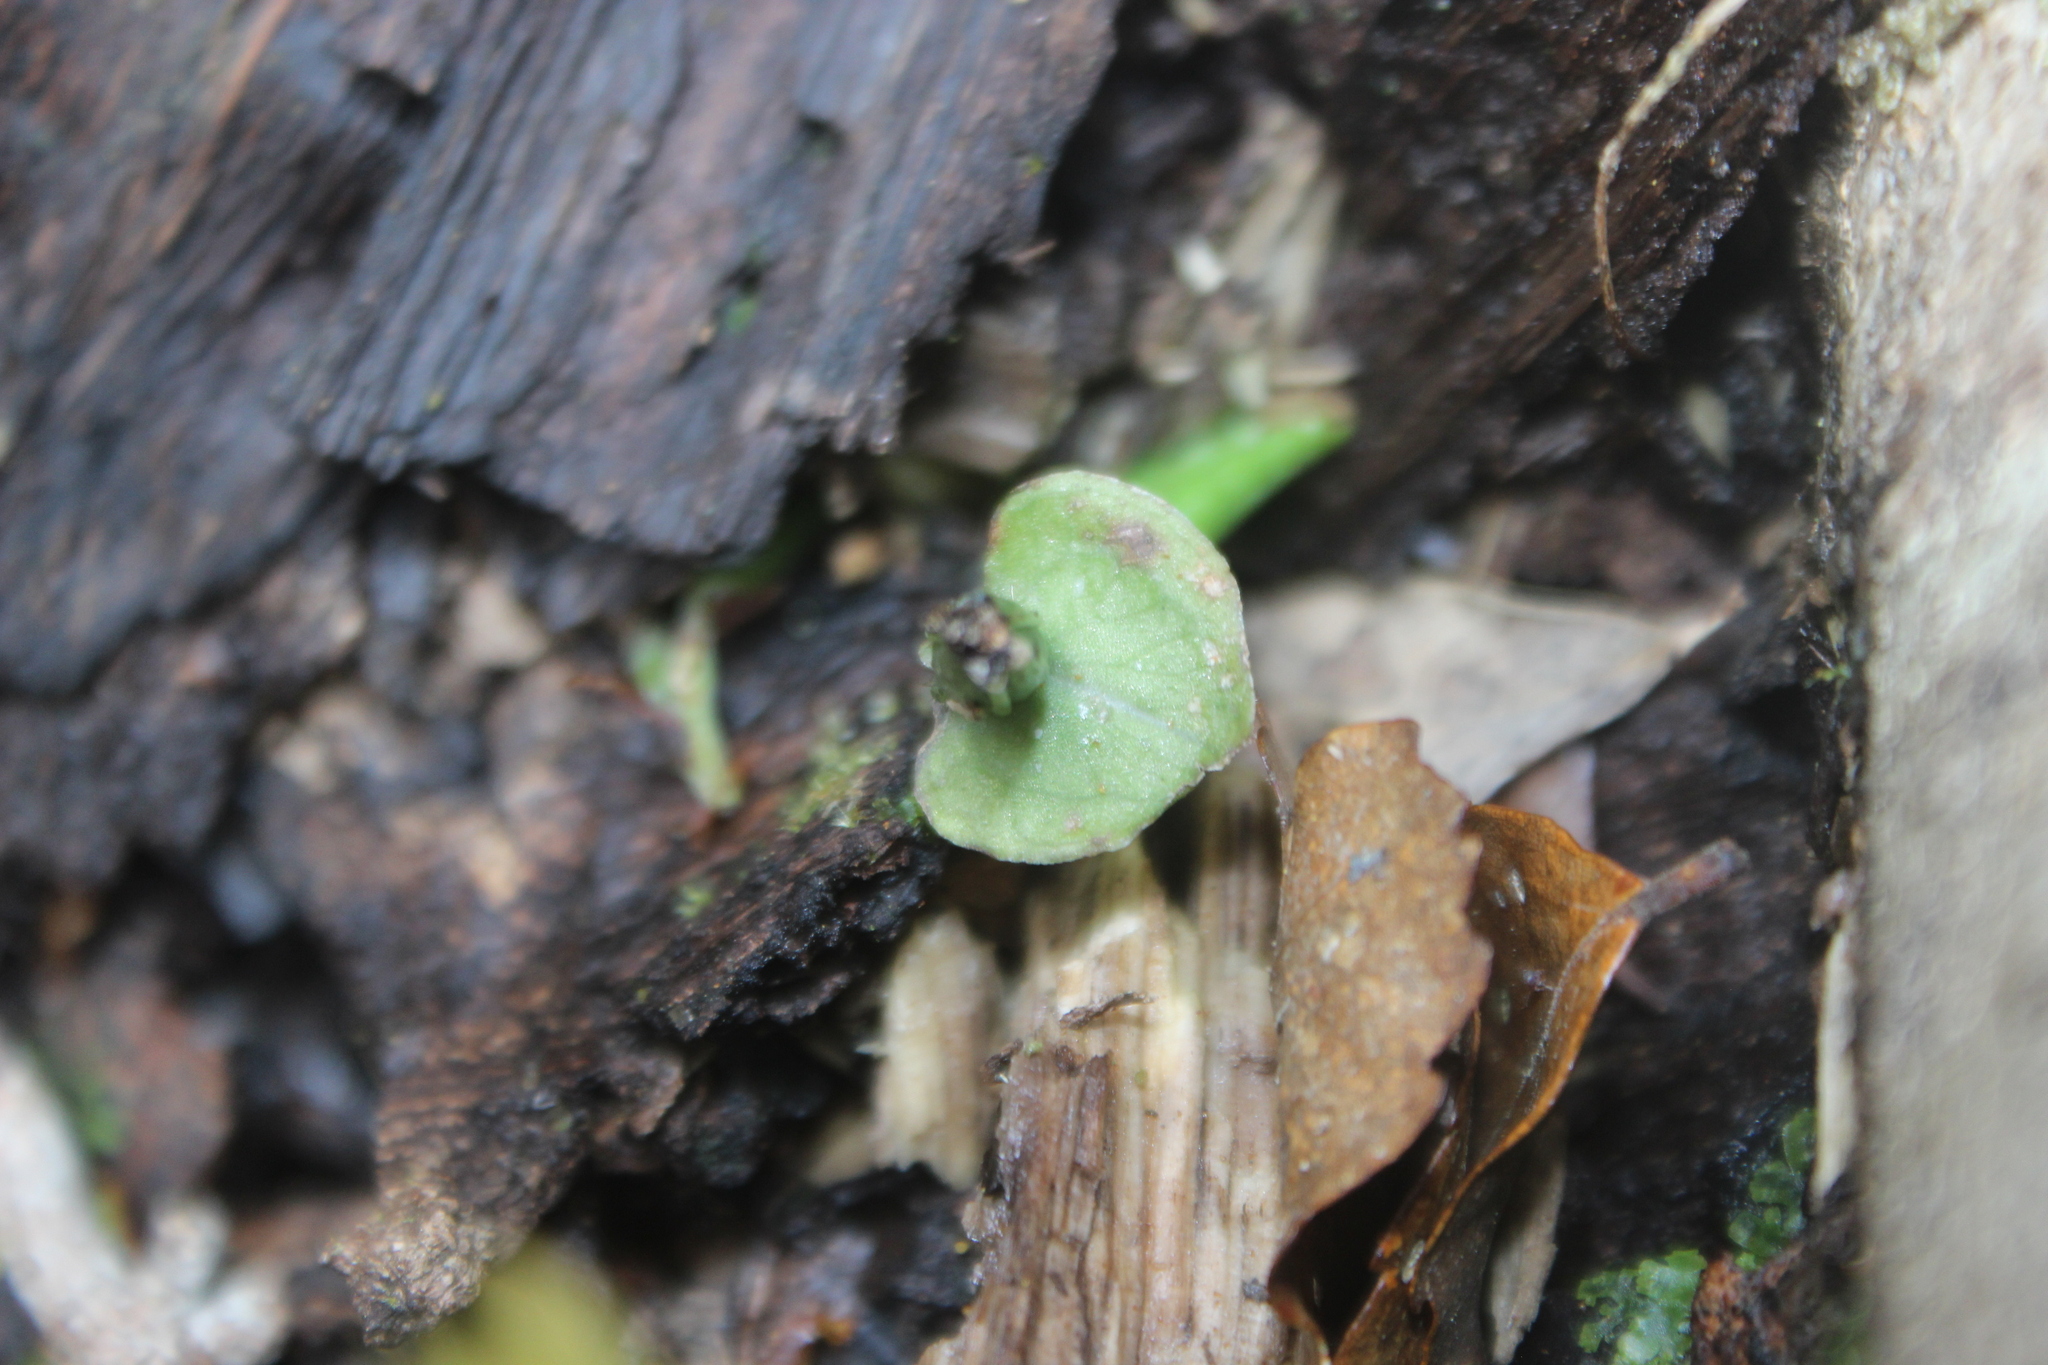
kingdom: Plantae
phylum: Tracheophyta
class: Liliopsida
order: Asparagales
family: Orchidaceae
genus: Corybas
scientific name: Corybas cheesemanii
